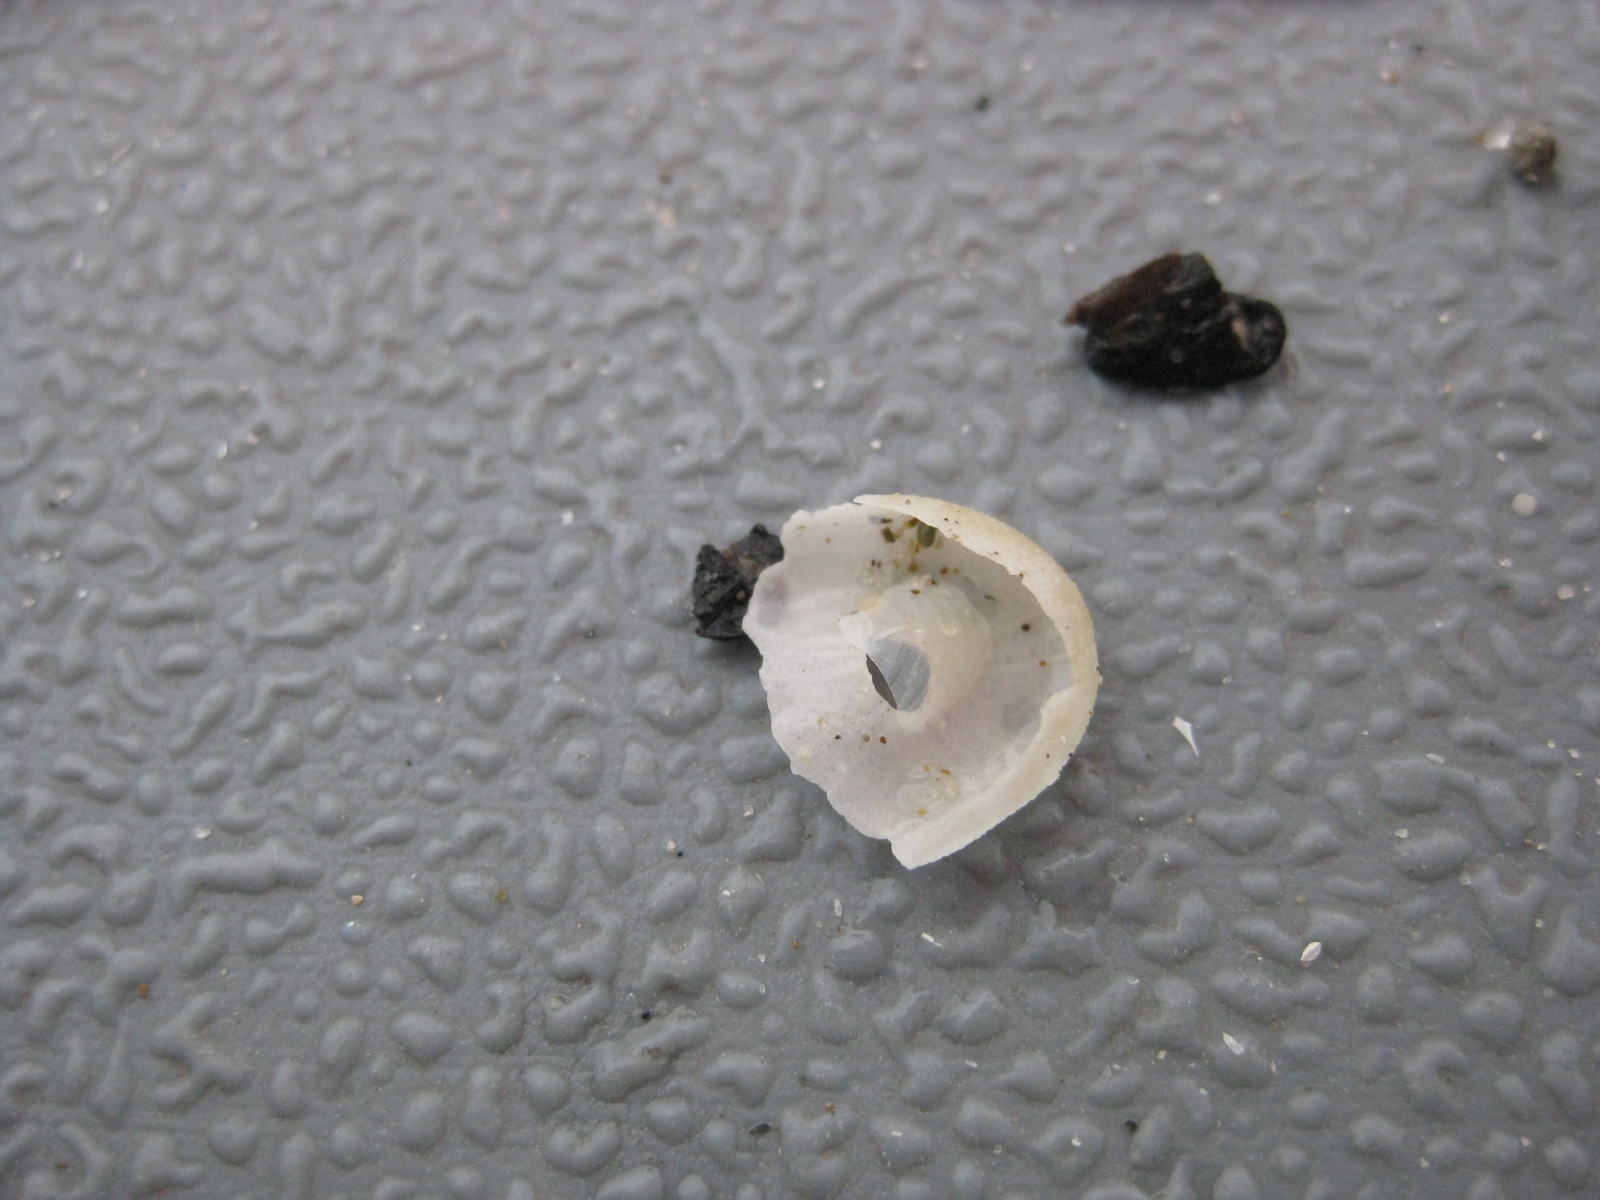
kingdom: Animalia
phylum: Echinodermata
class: Echinoidea
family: Apatopygidae
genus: Apatopygus
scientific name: Apatopygus recens
